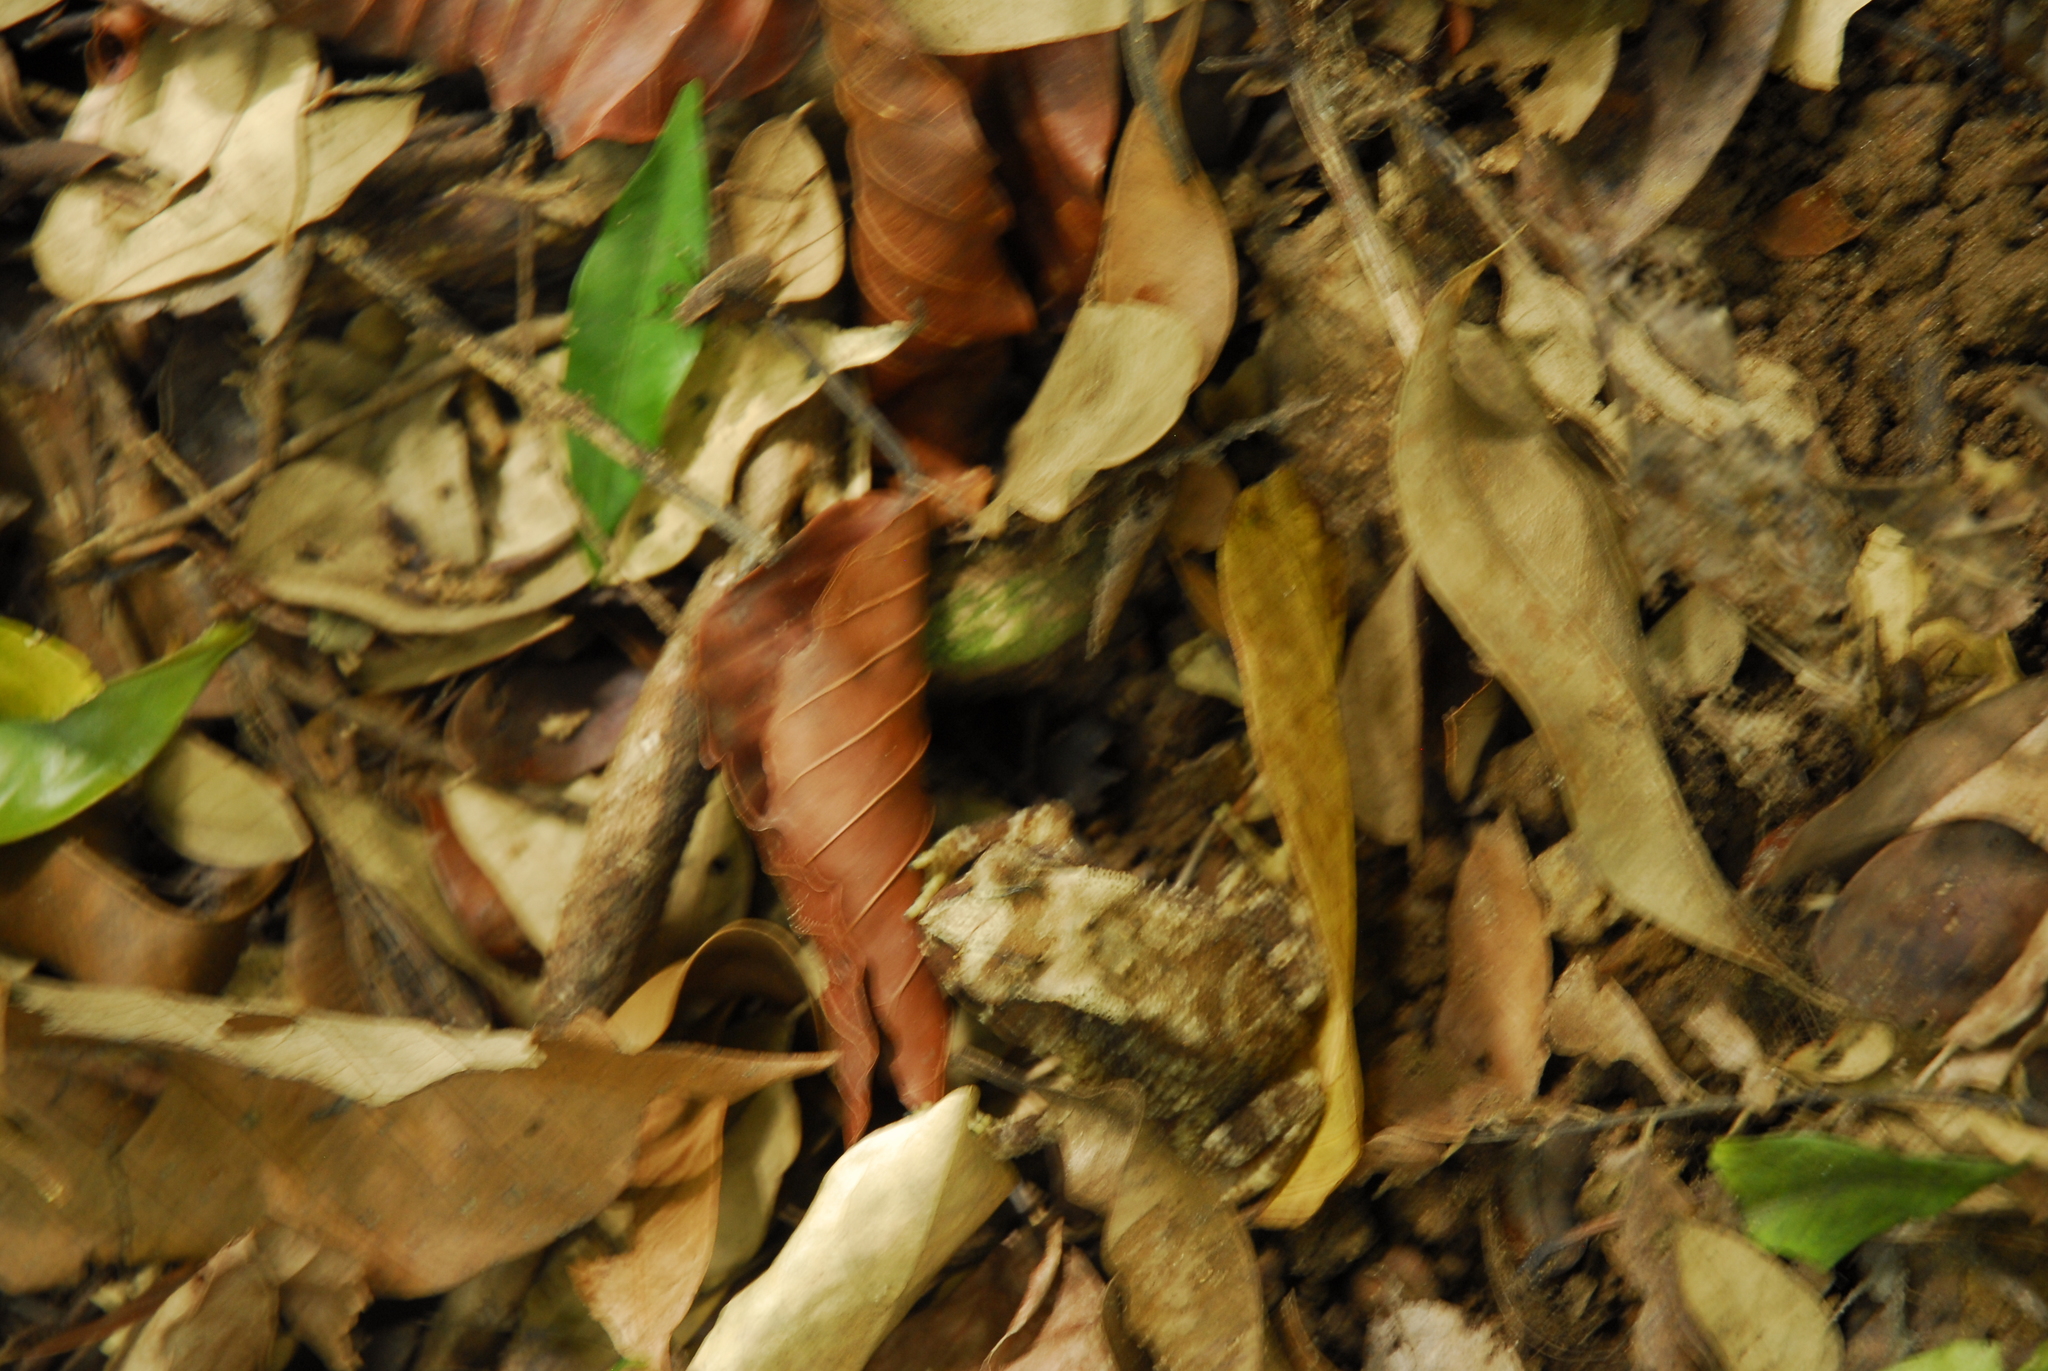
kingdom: Animalia
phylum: Chordata
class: Amphibia
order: Anura
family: Bufonidae
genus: Duttaphrynus
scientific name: Duttaphrynus parietalis
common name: Indian toad
